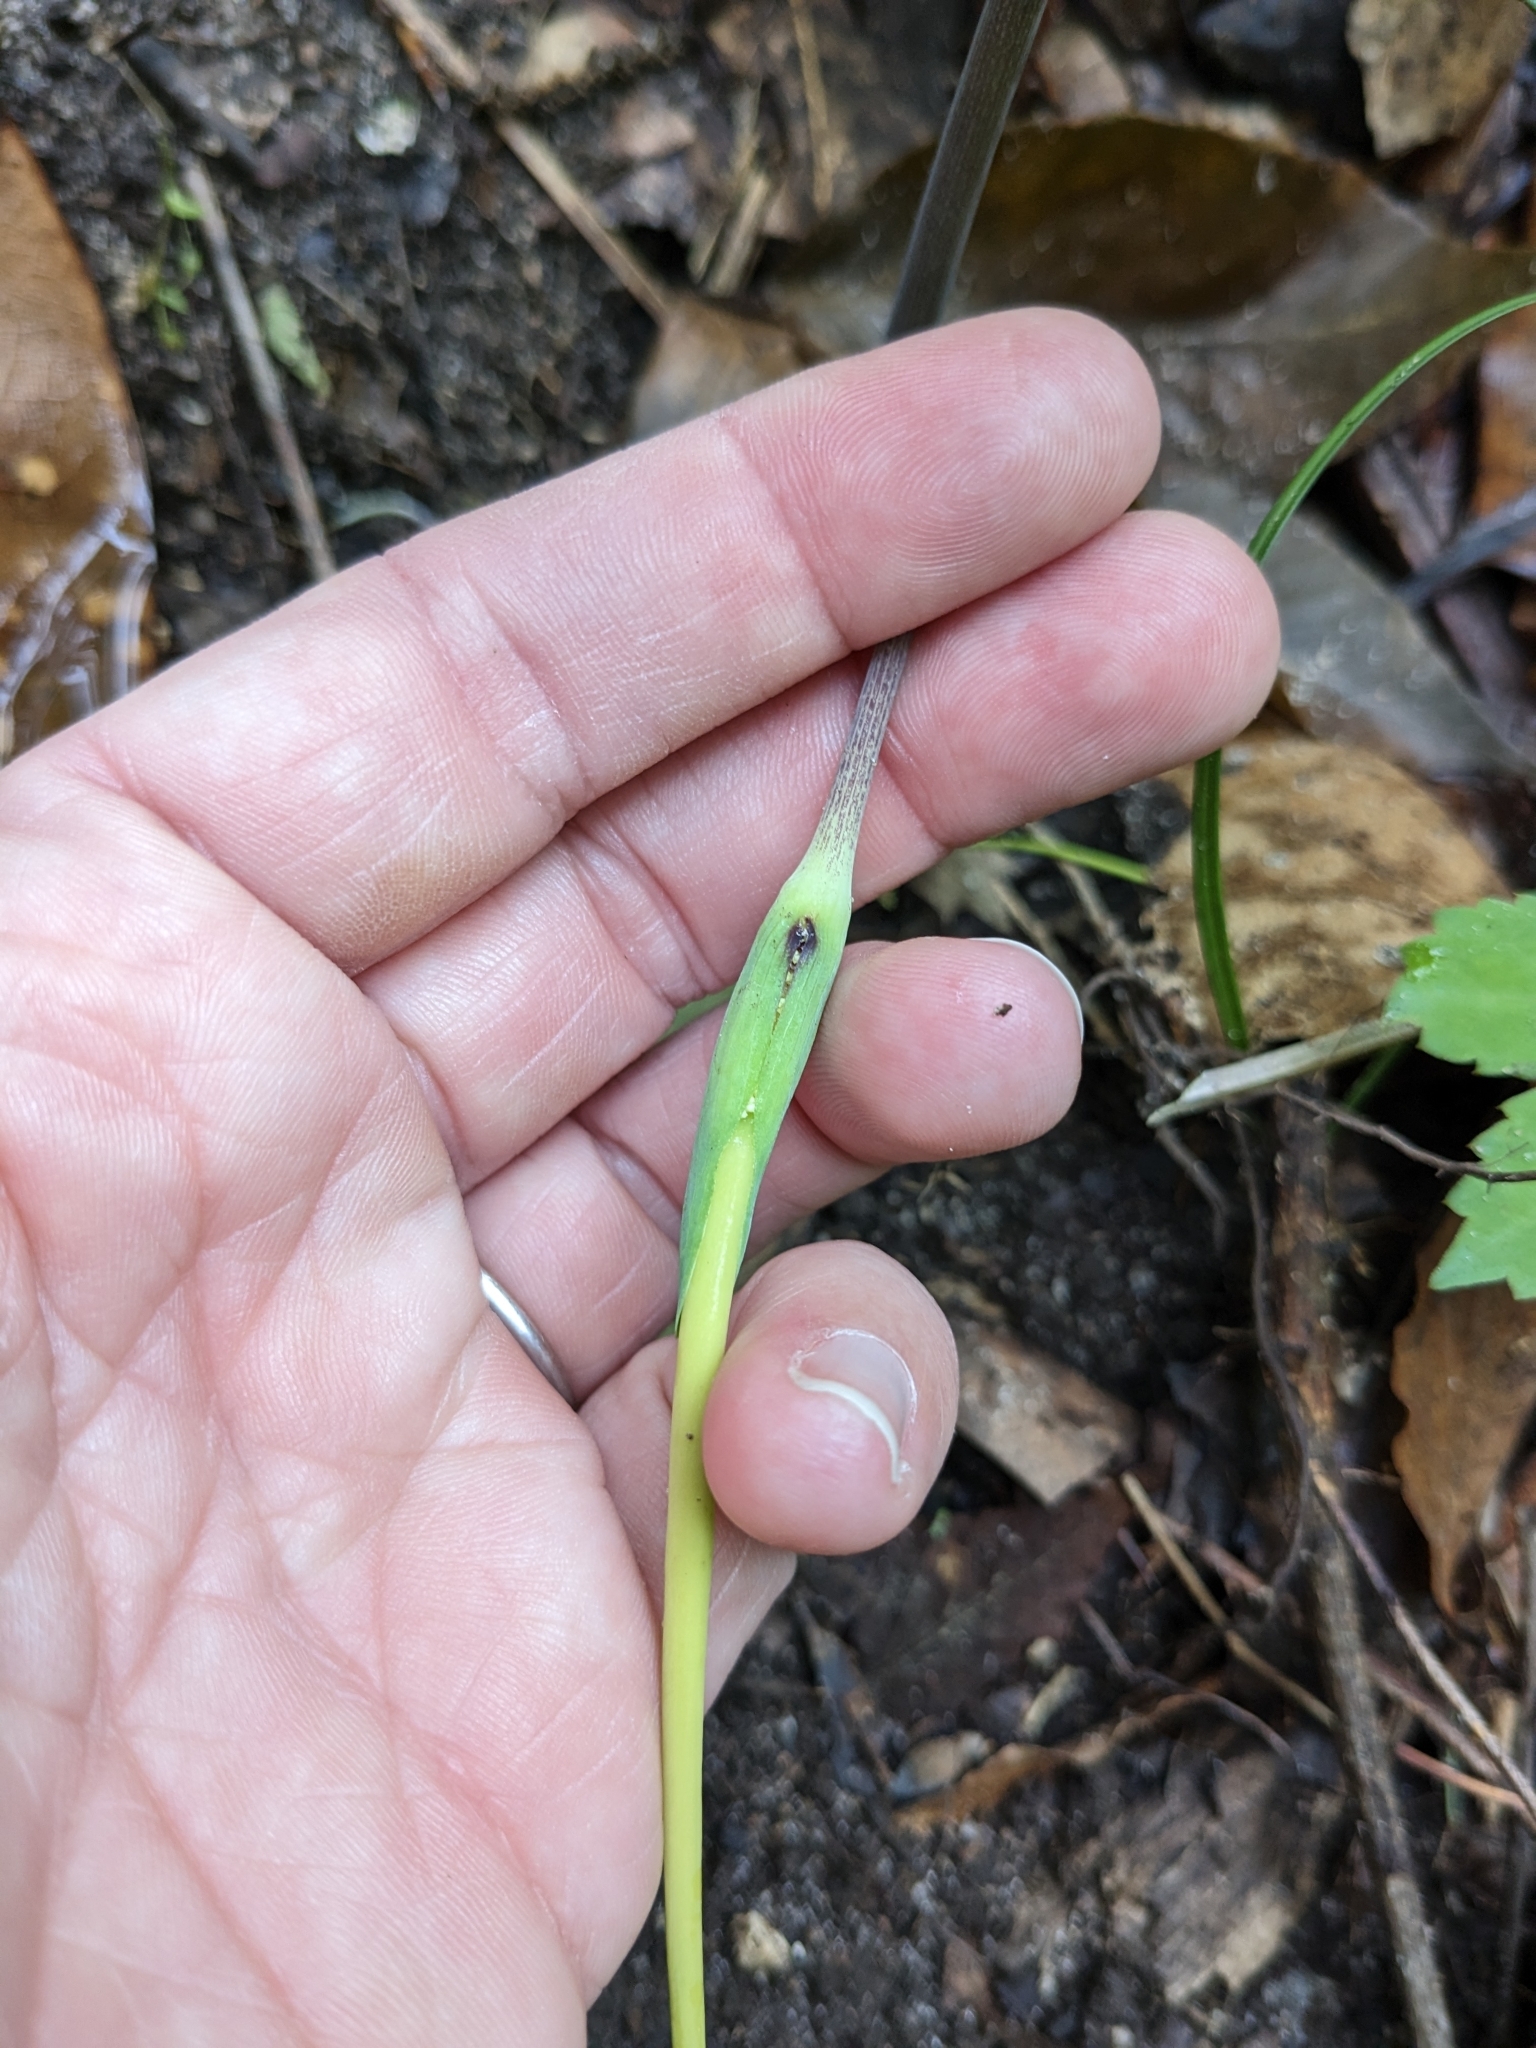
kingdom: Plantae
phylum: Tracheophyta
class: Liliopsida
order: Alismatales
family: Araceae
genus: Arisaema
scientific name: Arisaema dracontium
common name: Dragon-arum
